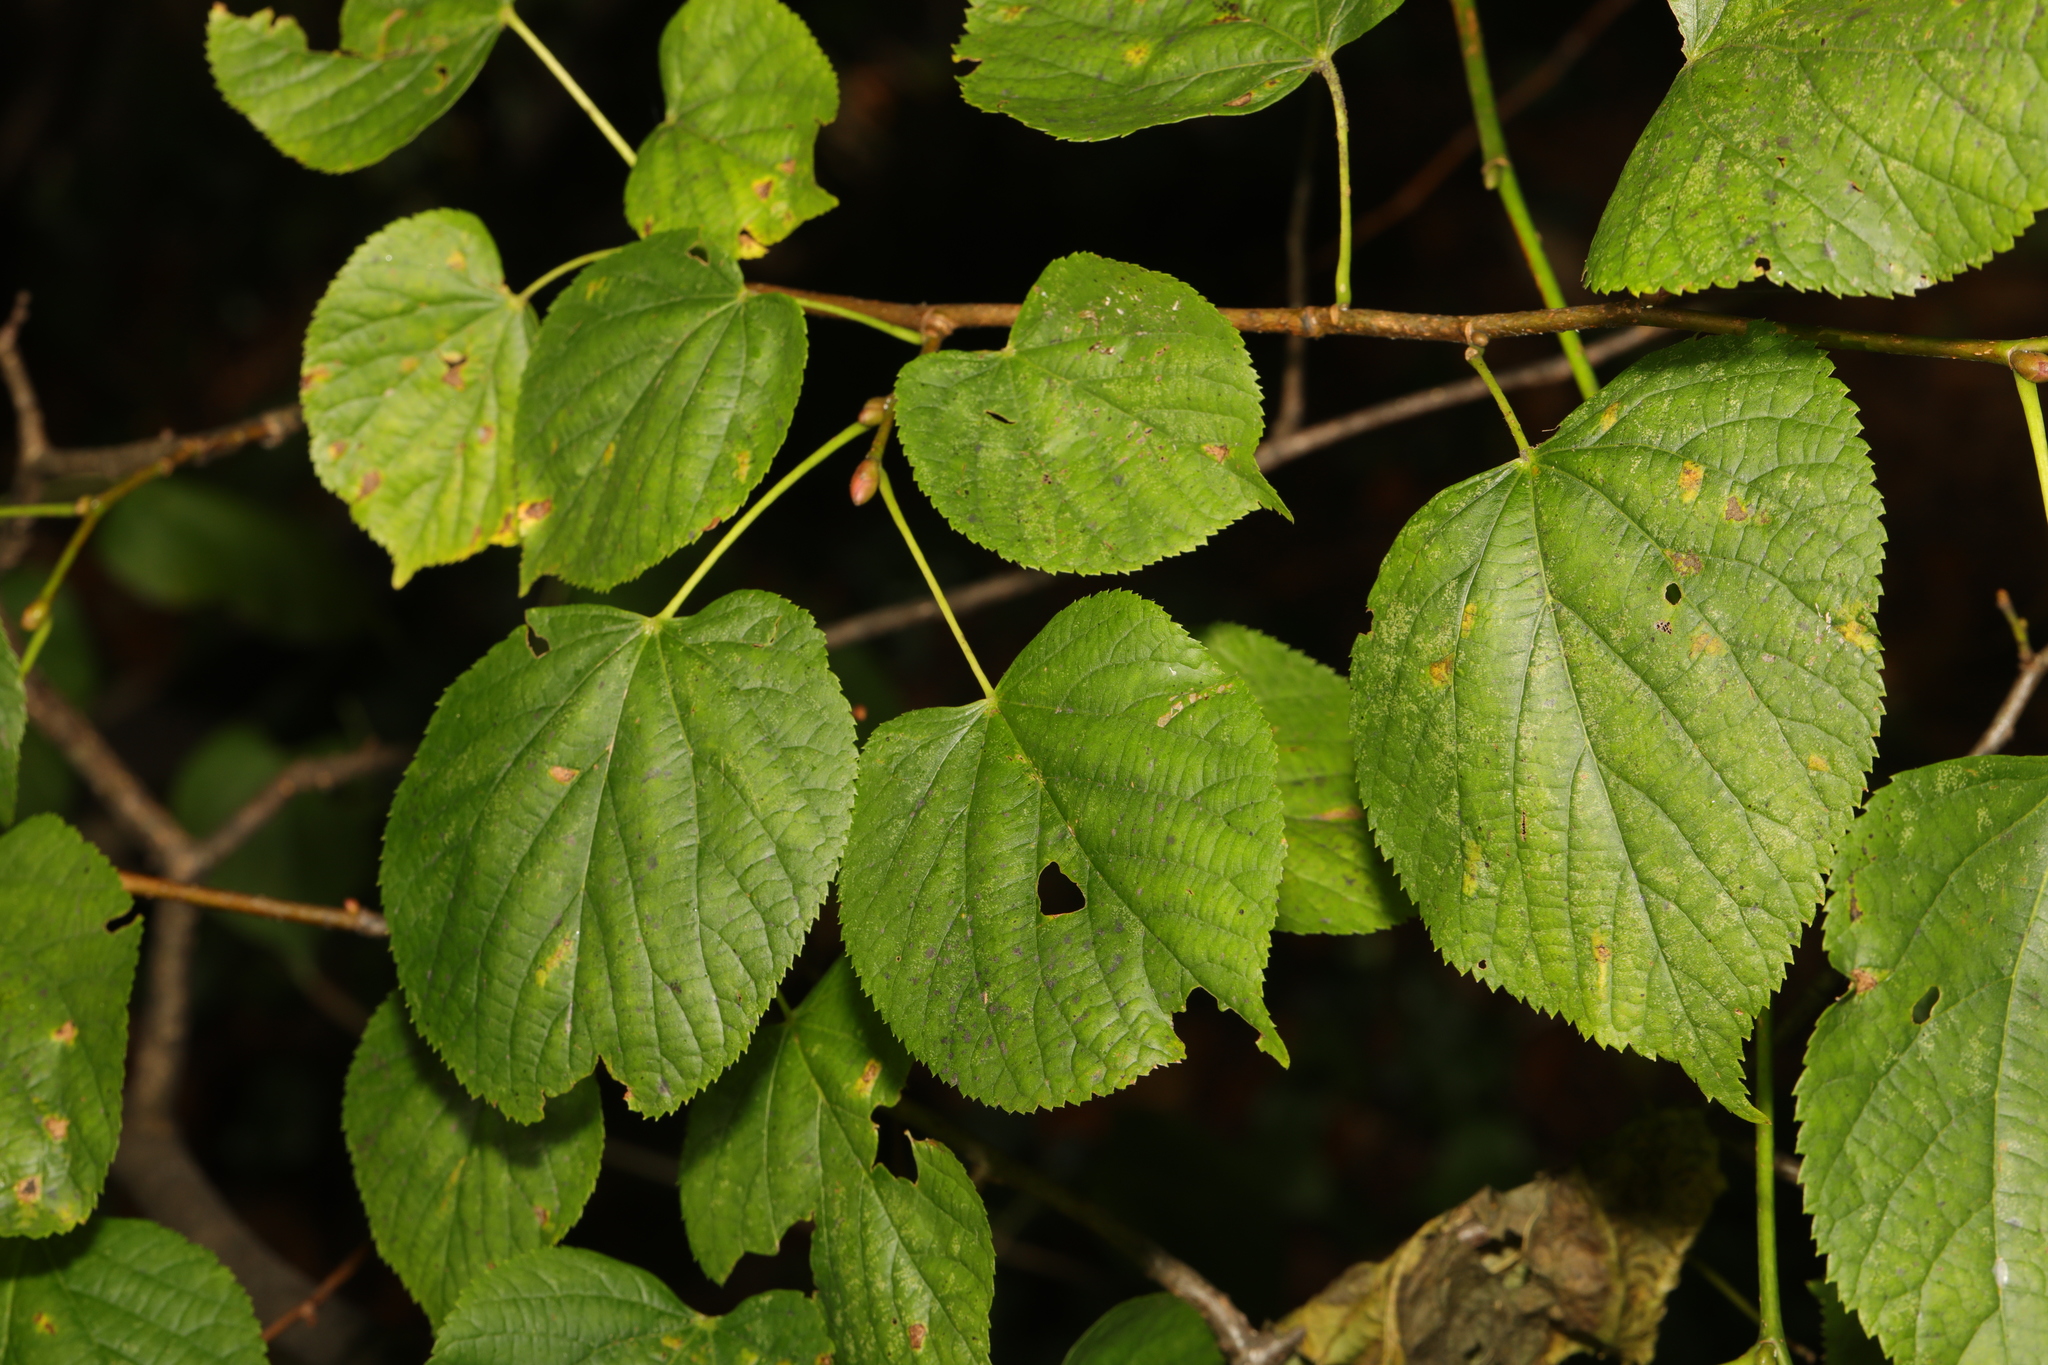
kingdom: Plantae
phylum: Tracheophyta
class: Magnoliopsida
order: Malvales
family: Malvaceae
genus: Tilia
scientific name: Tilia europaea
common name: European linden
